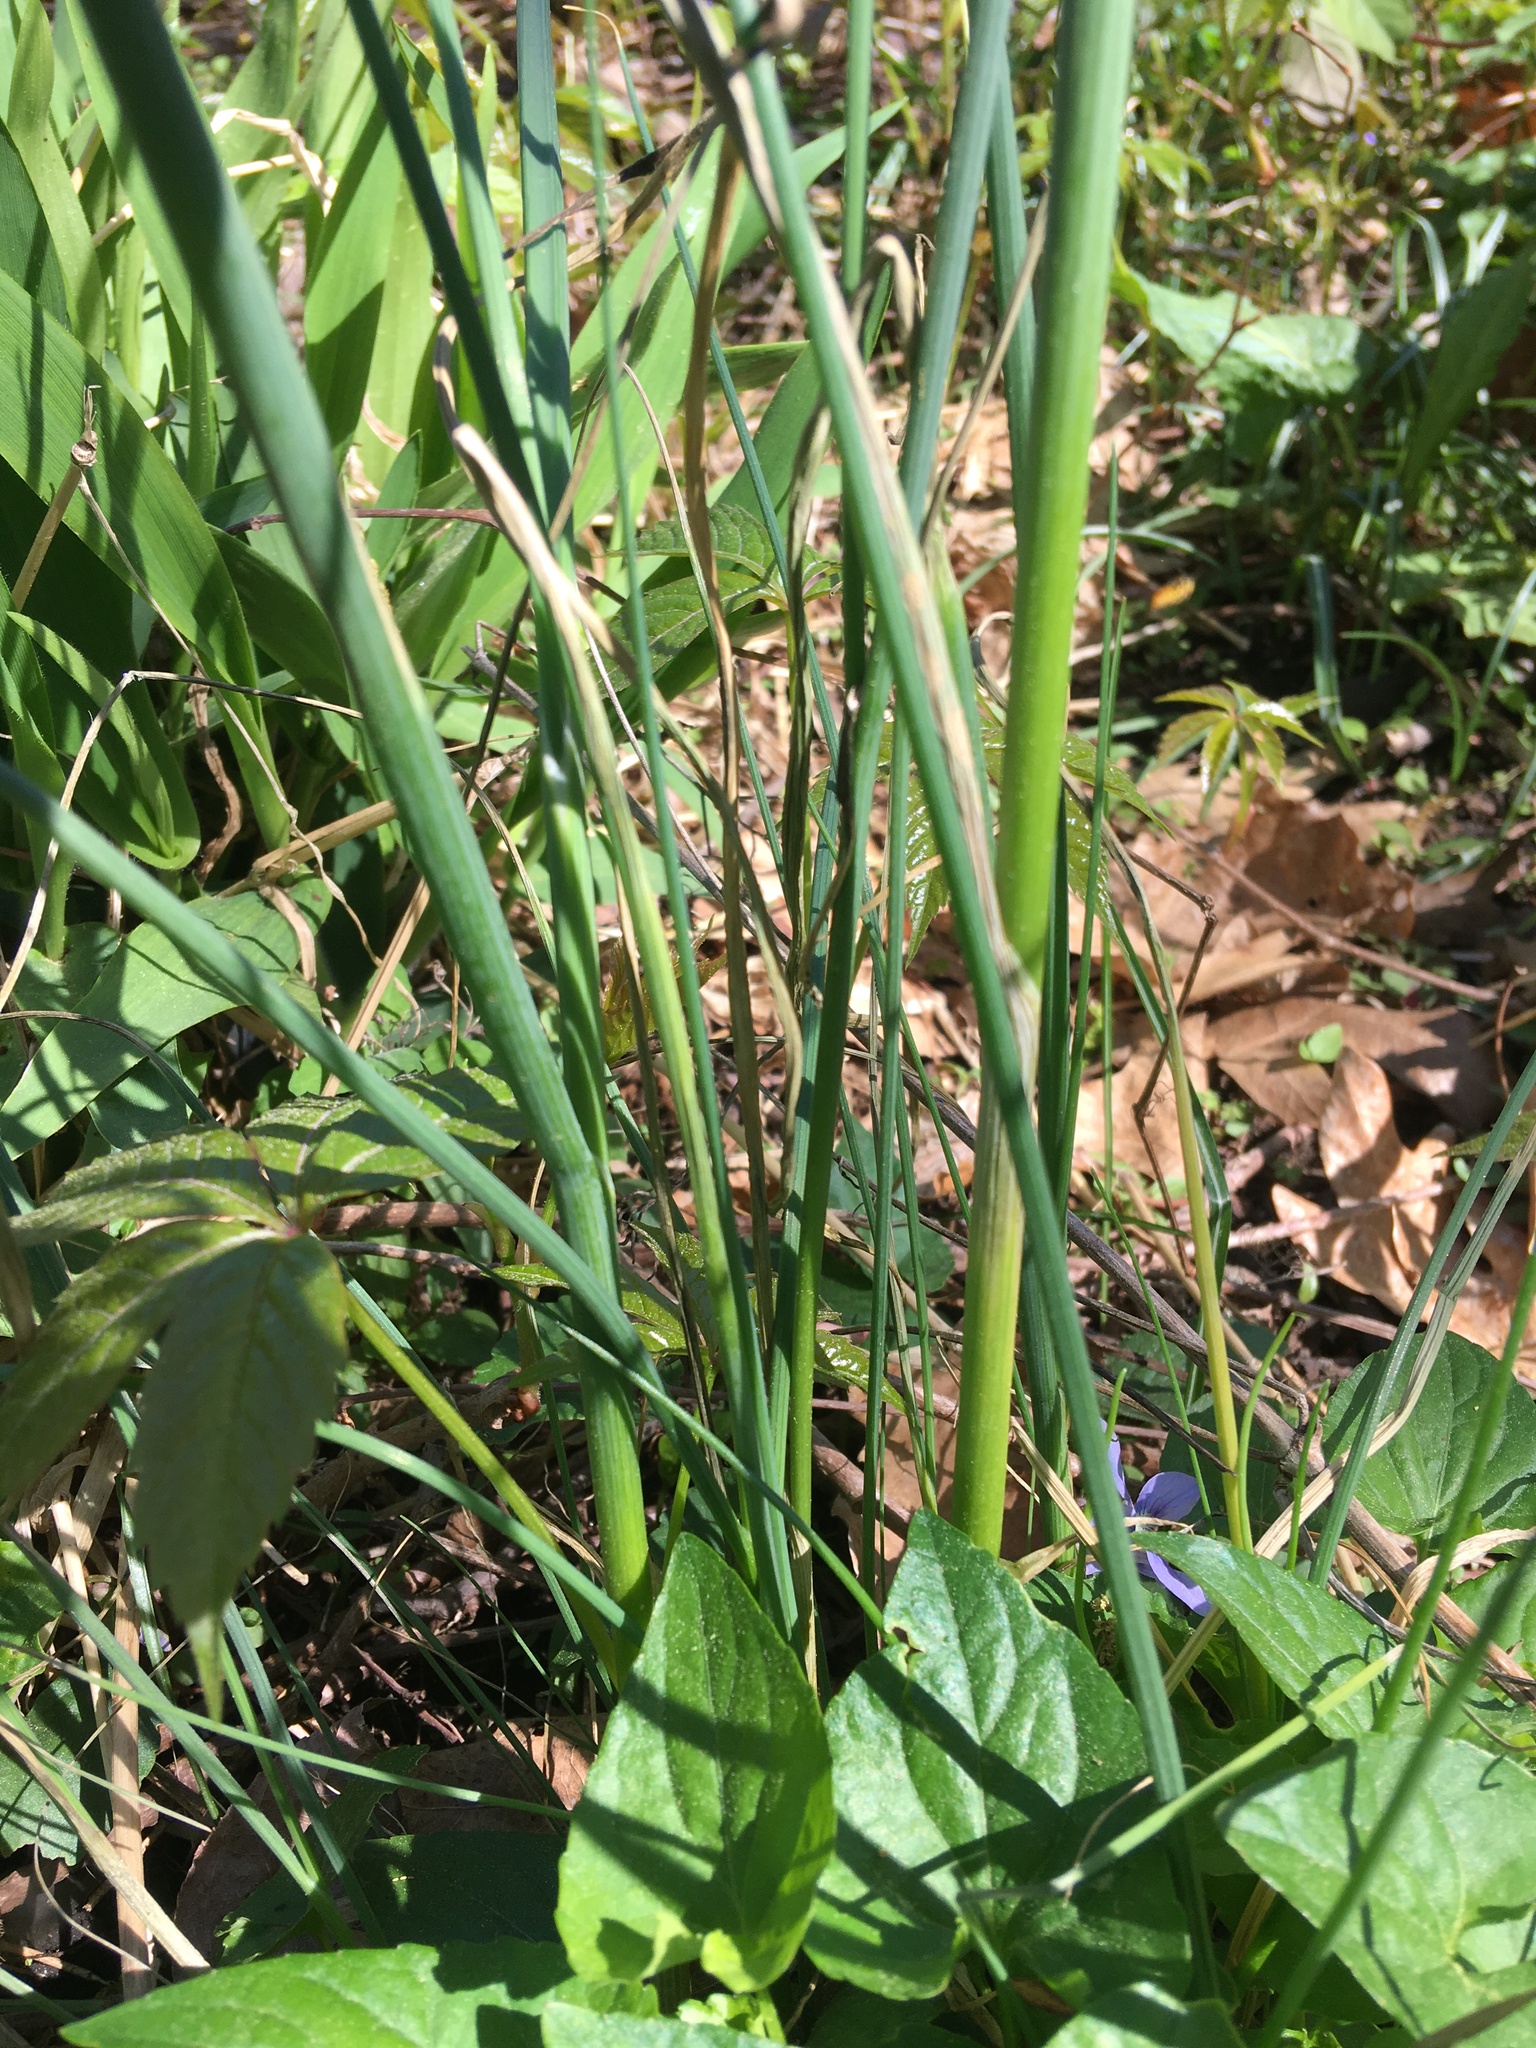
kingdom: Plantae
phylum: Tracheophyta
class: Liliopsida
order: Asparagales
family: Amaryllidaceae
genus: Allium
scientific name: Allium canadense
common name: Meadow garlic
